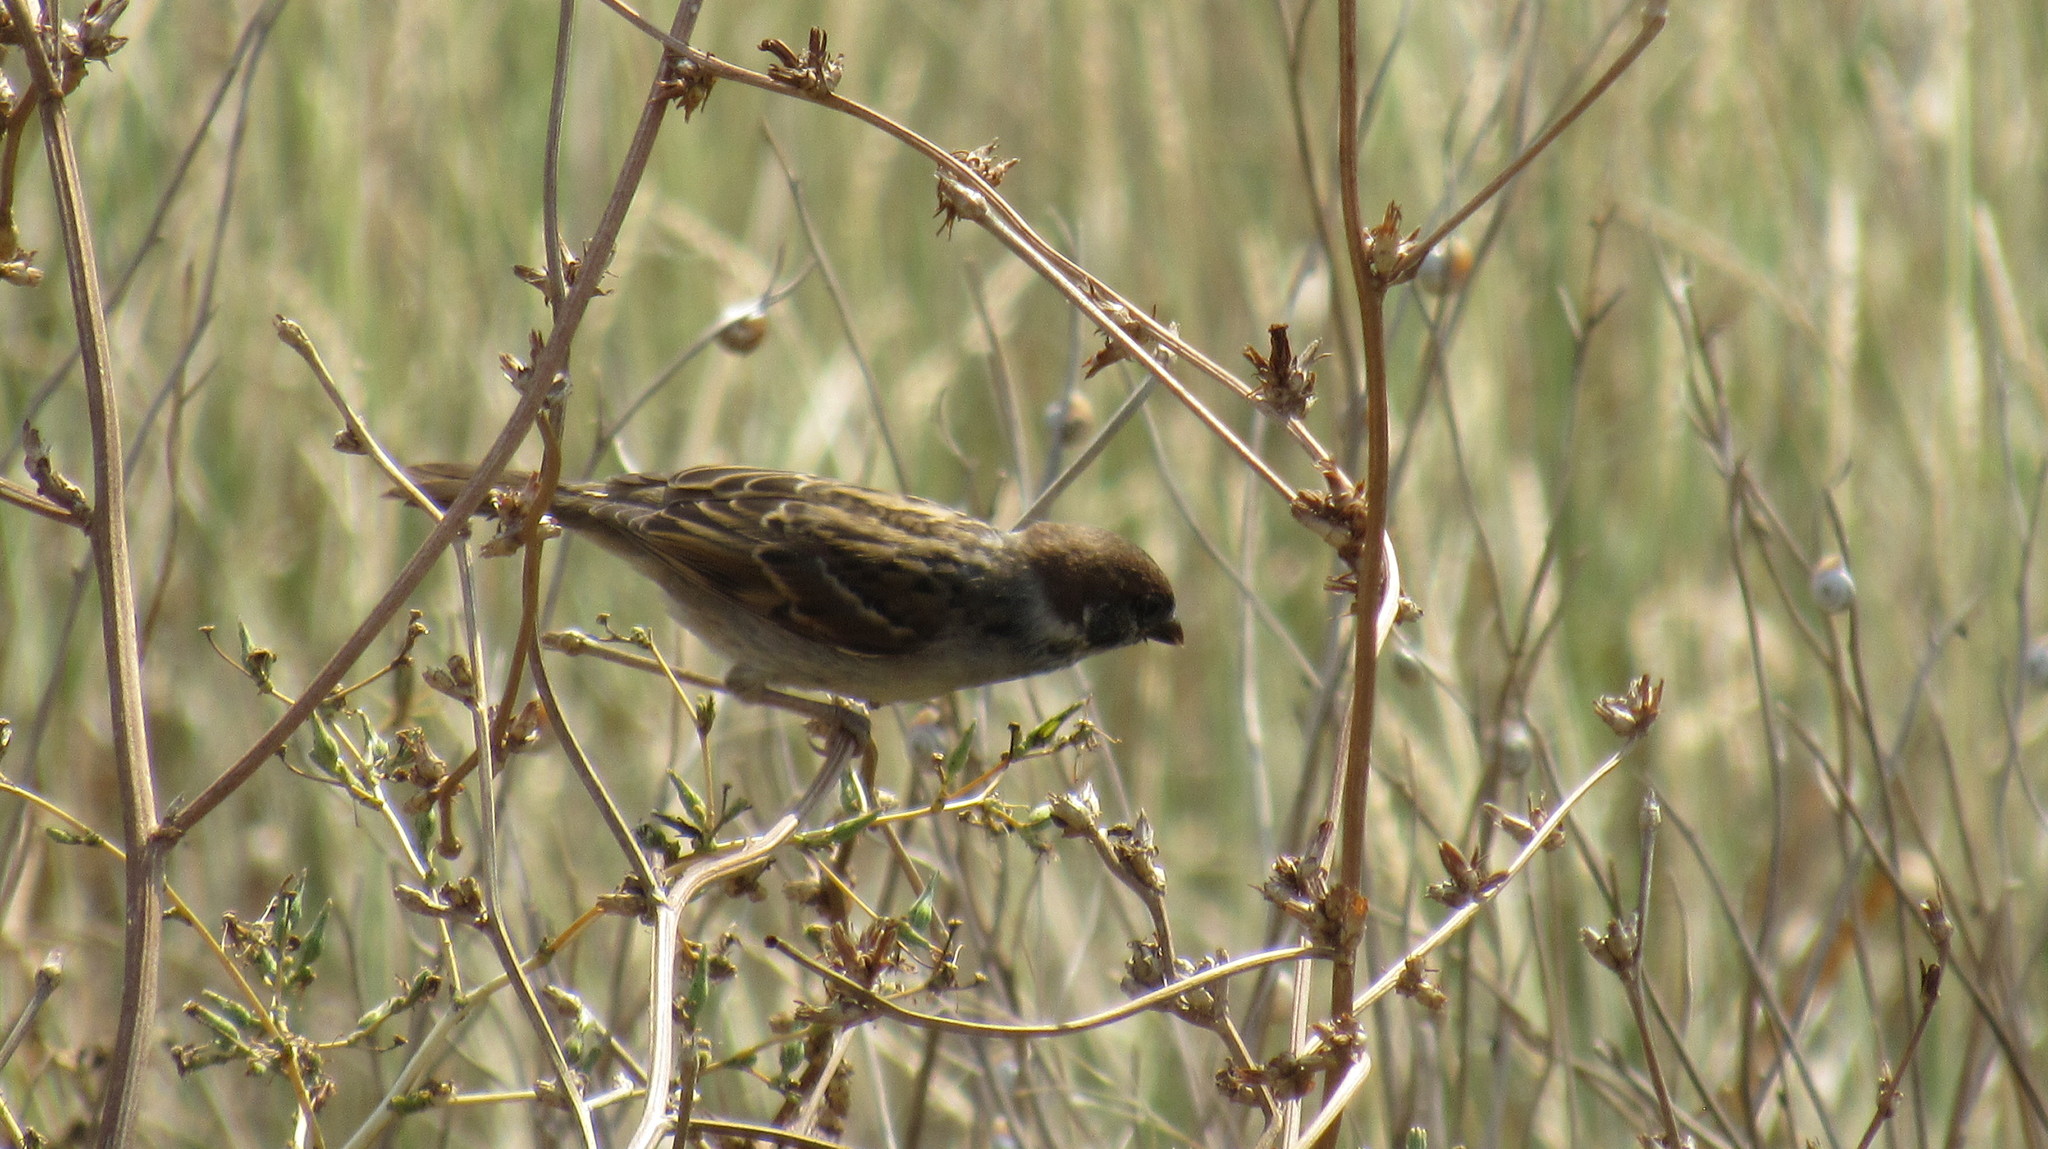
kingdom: Animalia
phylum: Chordata
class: Aves
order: Passeriformes
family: Passeridae
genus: Passer
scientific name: Passer montanus
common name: Eurasian tree sparrow
